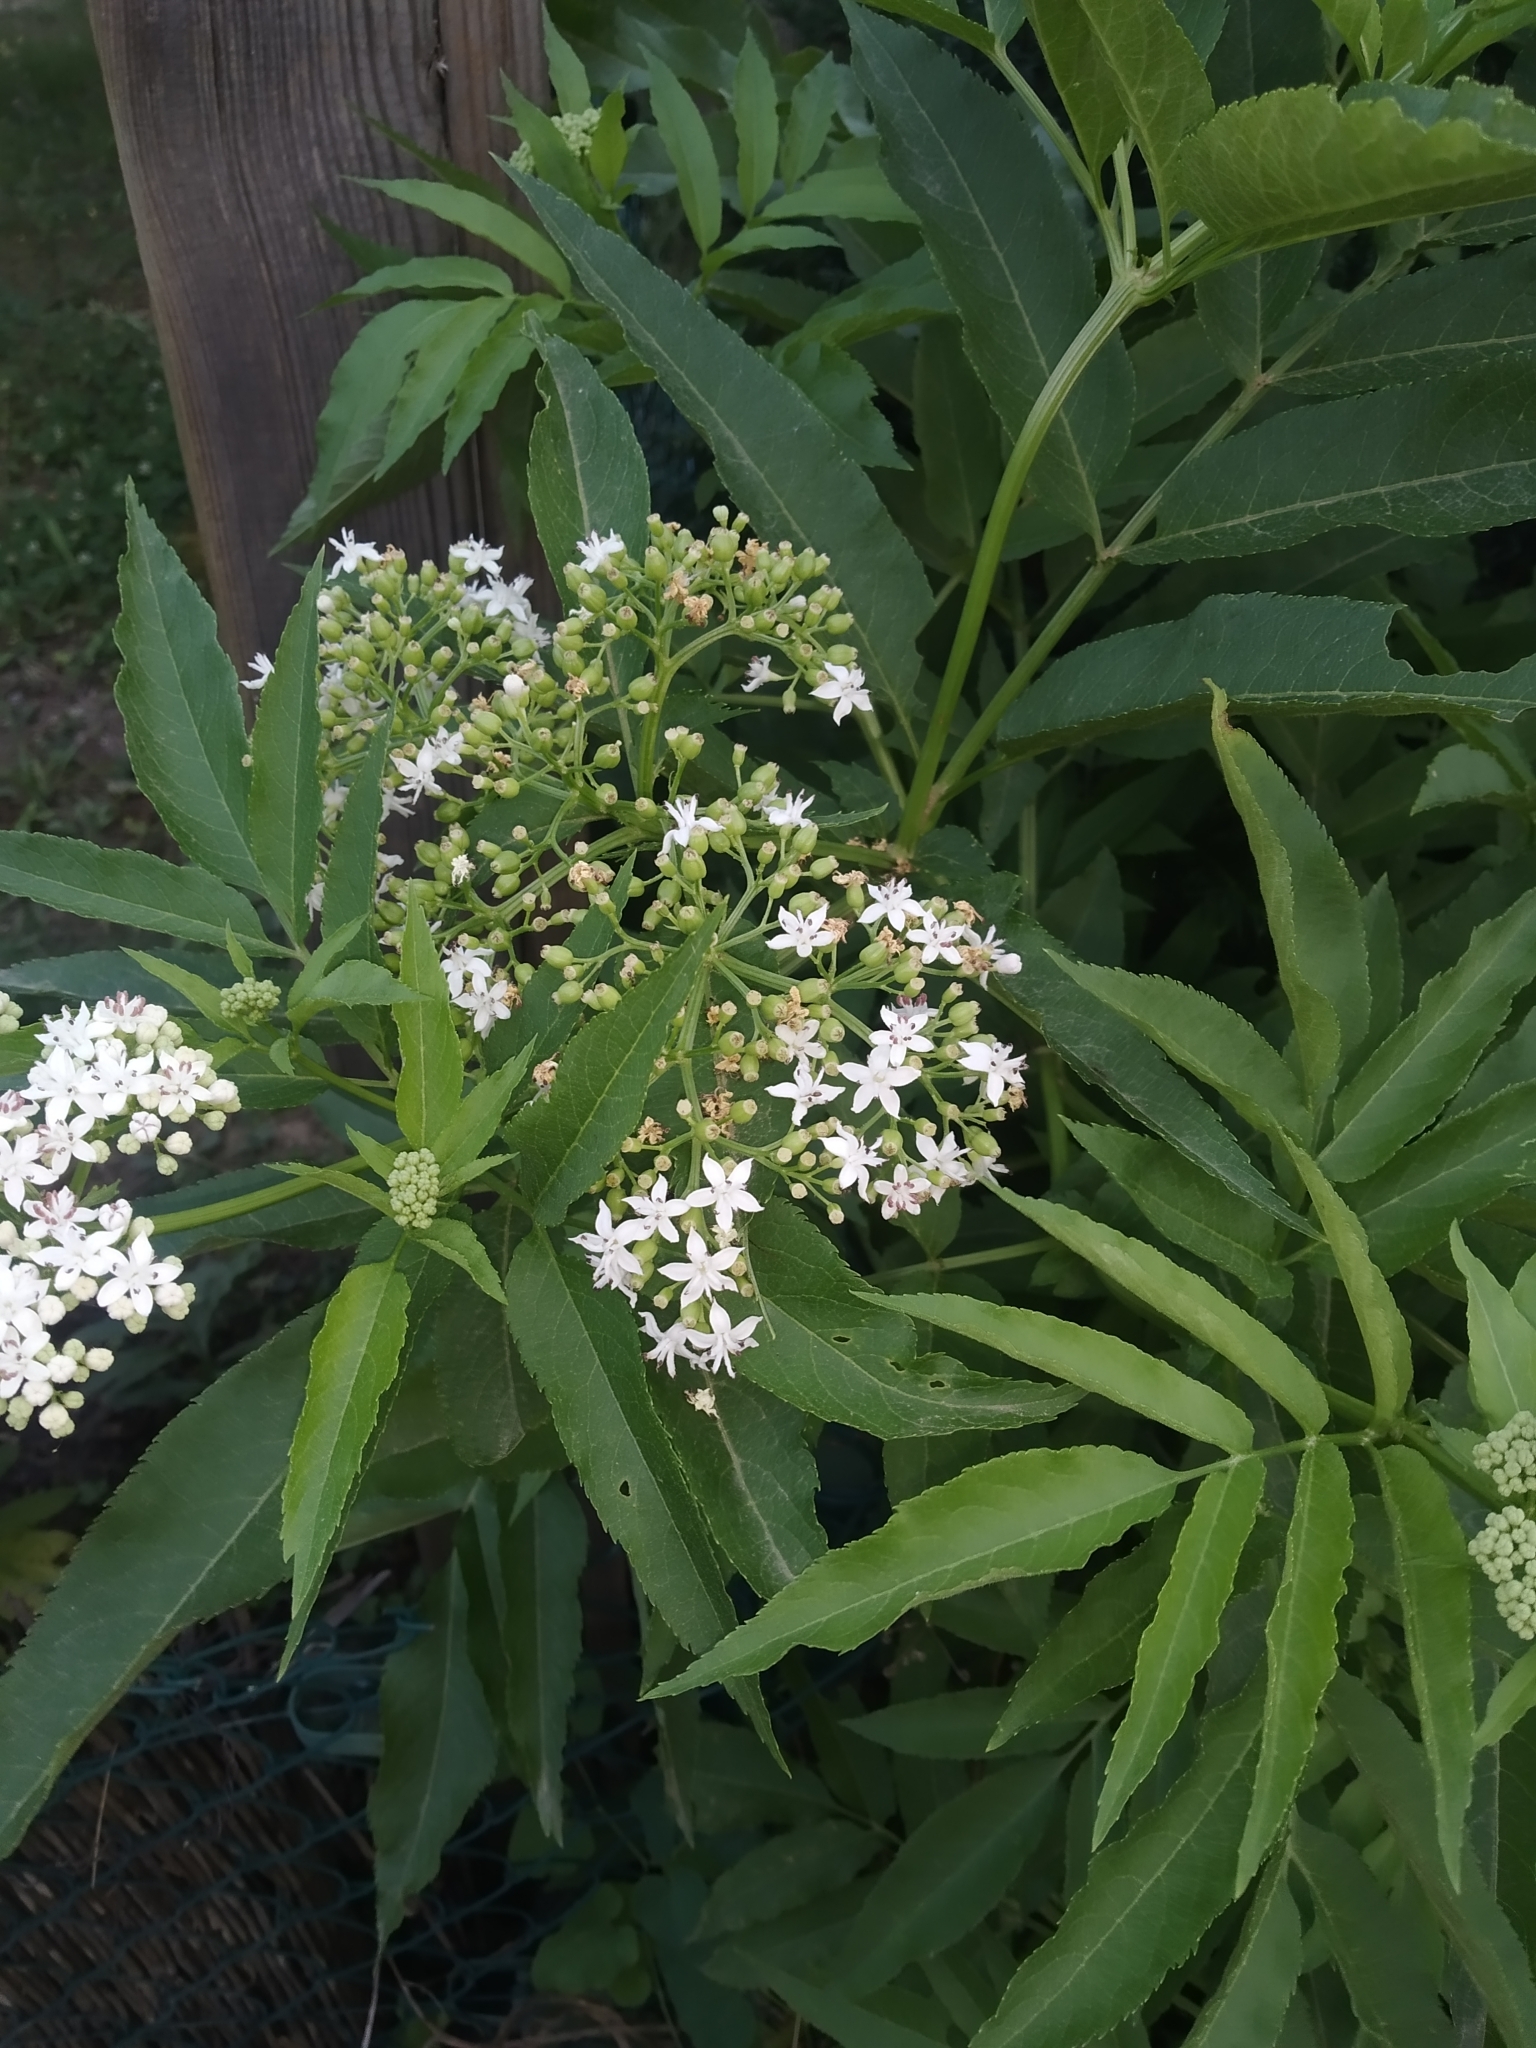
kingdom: Plantae
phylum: Tracheophyta
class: Magnoliopsida
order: Dipsacales
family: Viburnaceae
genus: Sambucus
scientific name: Sambucus ebulus
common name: Dwarf elder
